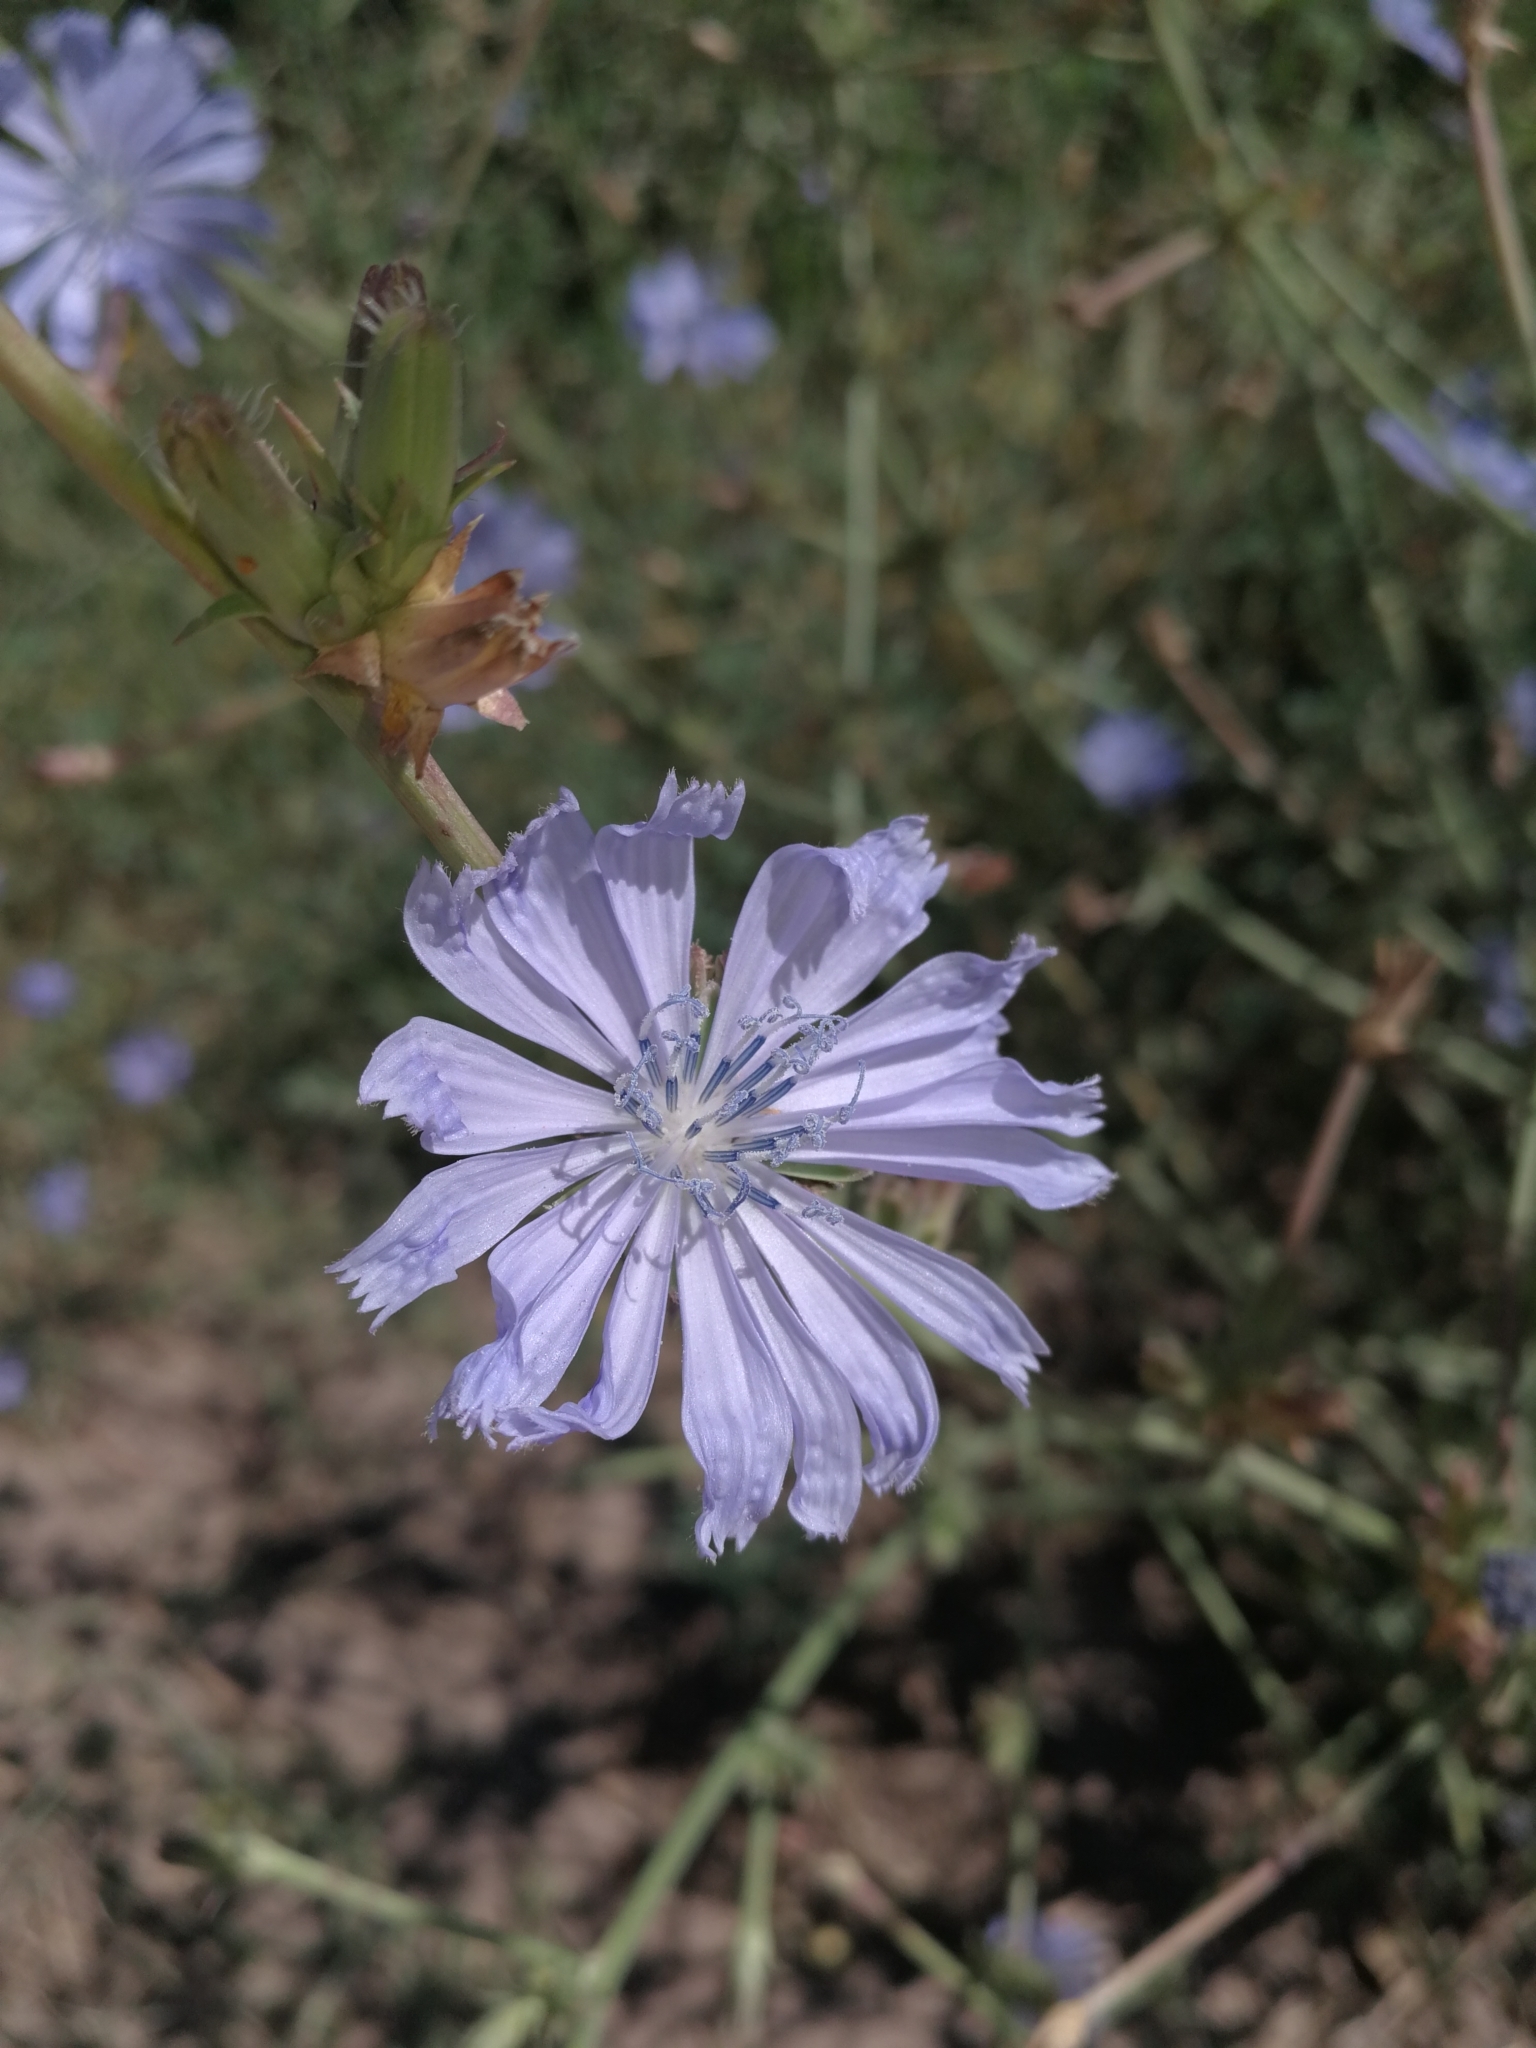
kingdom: Plantae
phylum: Tracheophyta
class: Magnoliopsida
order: Asterales
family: Asteraceae
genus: Cichorium
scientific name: Cichorium intybus
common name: Chicory
